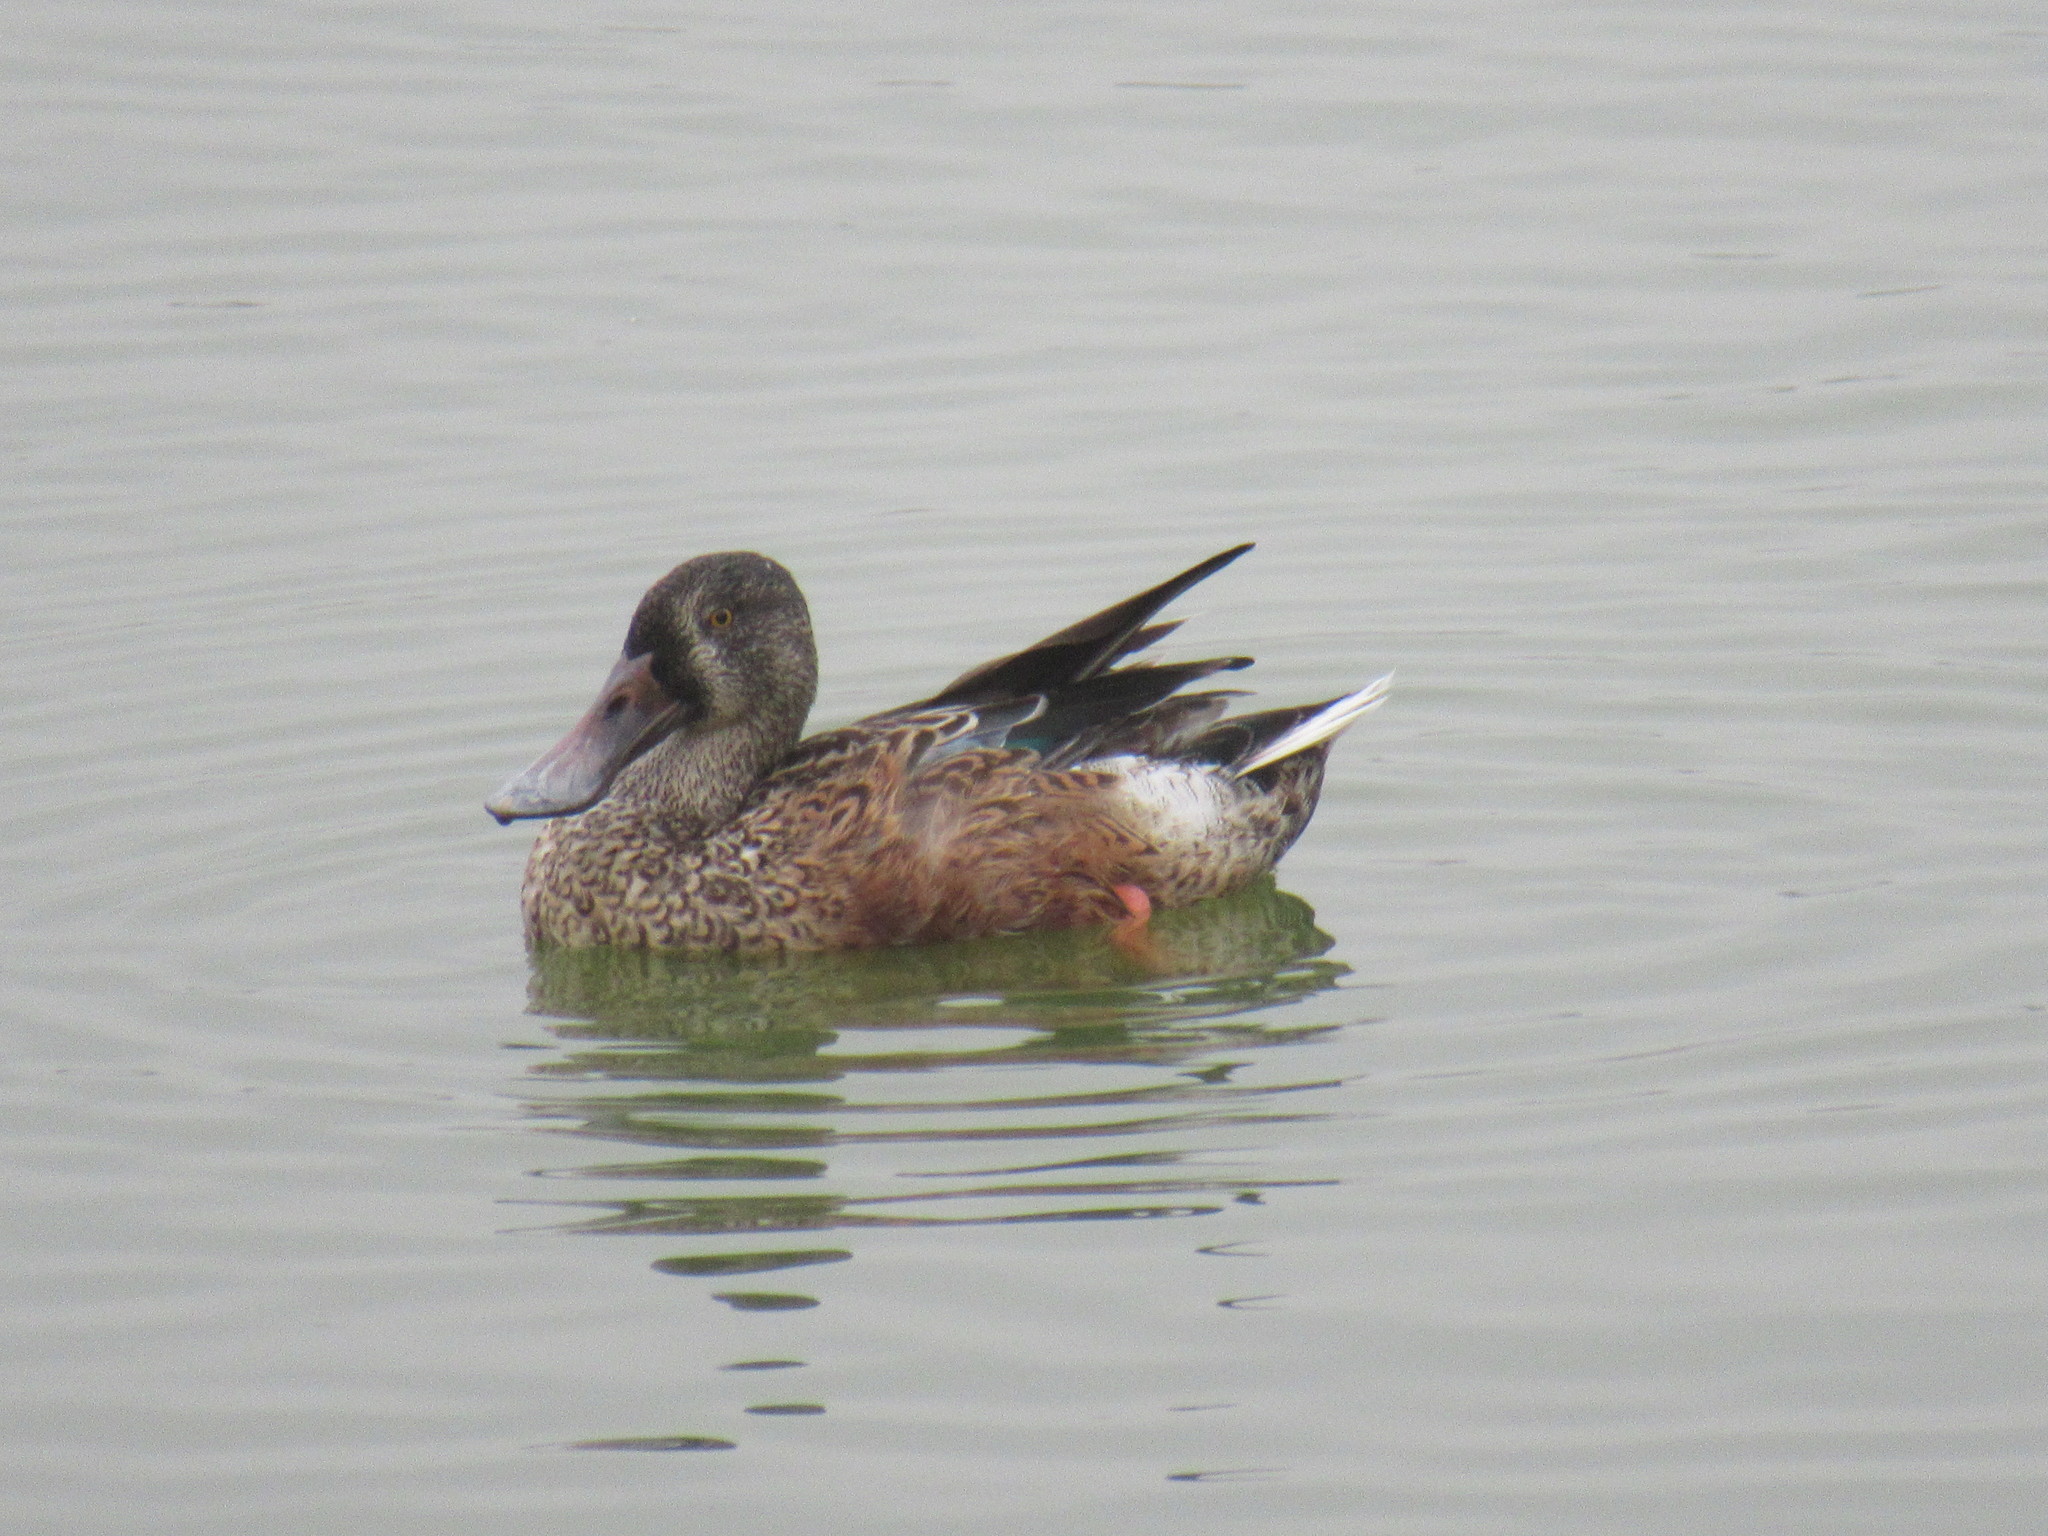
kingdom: Animalia
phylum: Chordata
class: Aves
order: Anseriformes
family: Anatidae
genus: Spatula
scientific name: Spatula clypeata
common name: Northern shoveler
